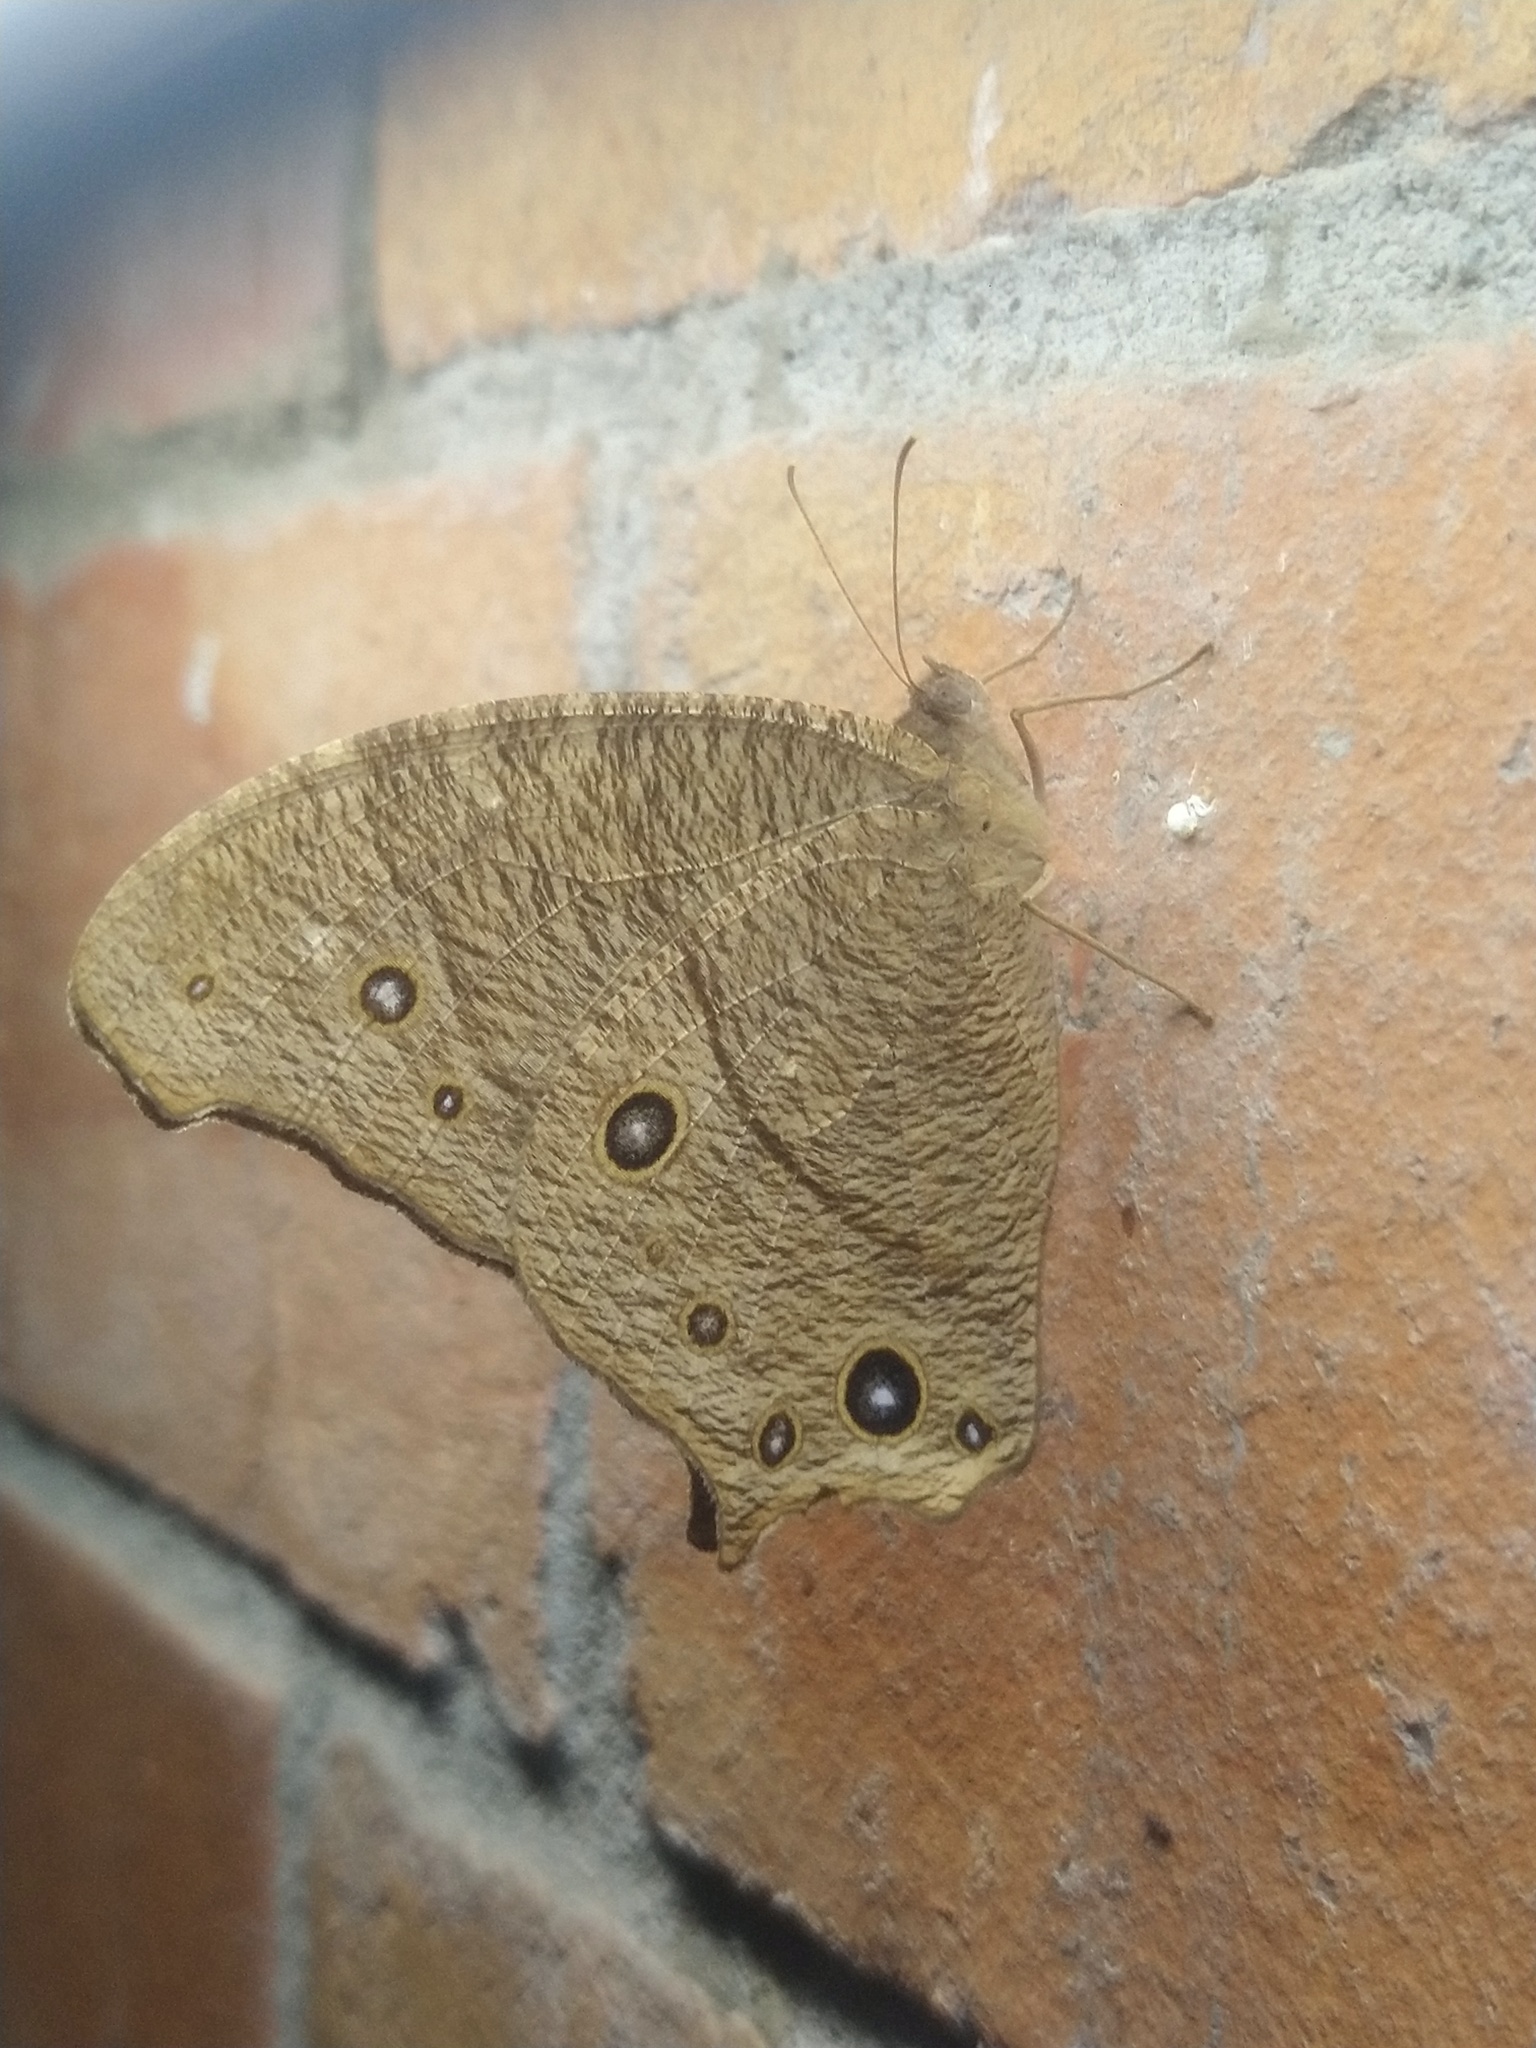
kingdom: Animalia
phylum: Arthropoda
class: Insecta
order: Lepidoptera
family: Nymphalidae
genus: Melanitis
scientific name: Melanitis leda
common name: Twilight brown
